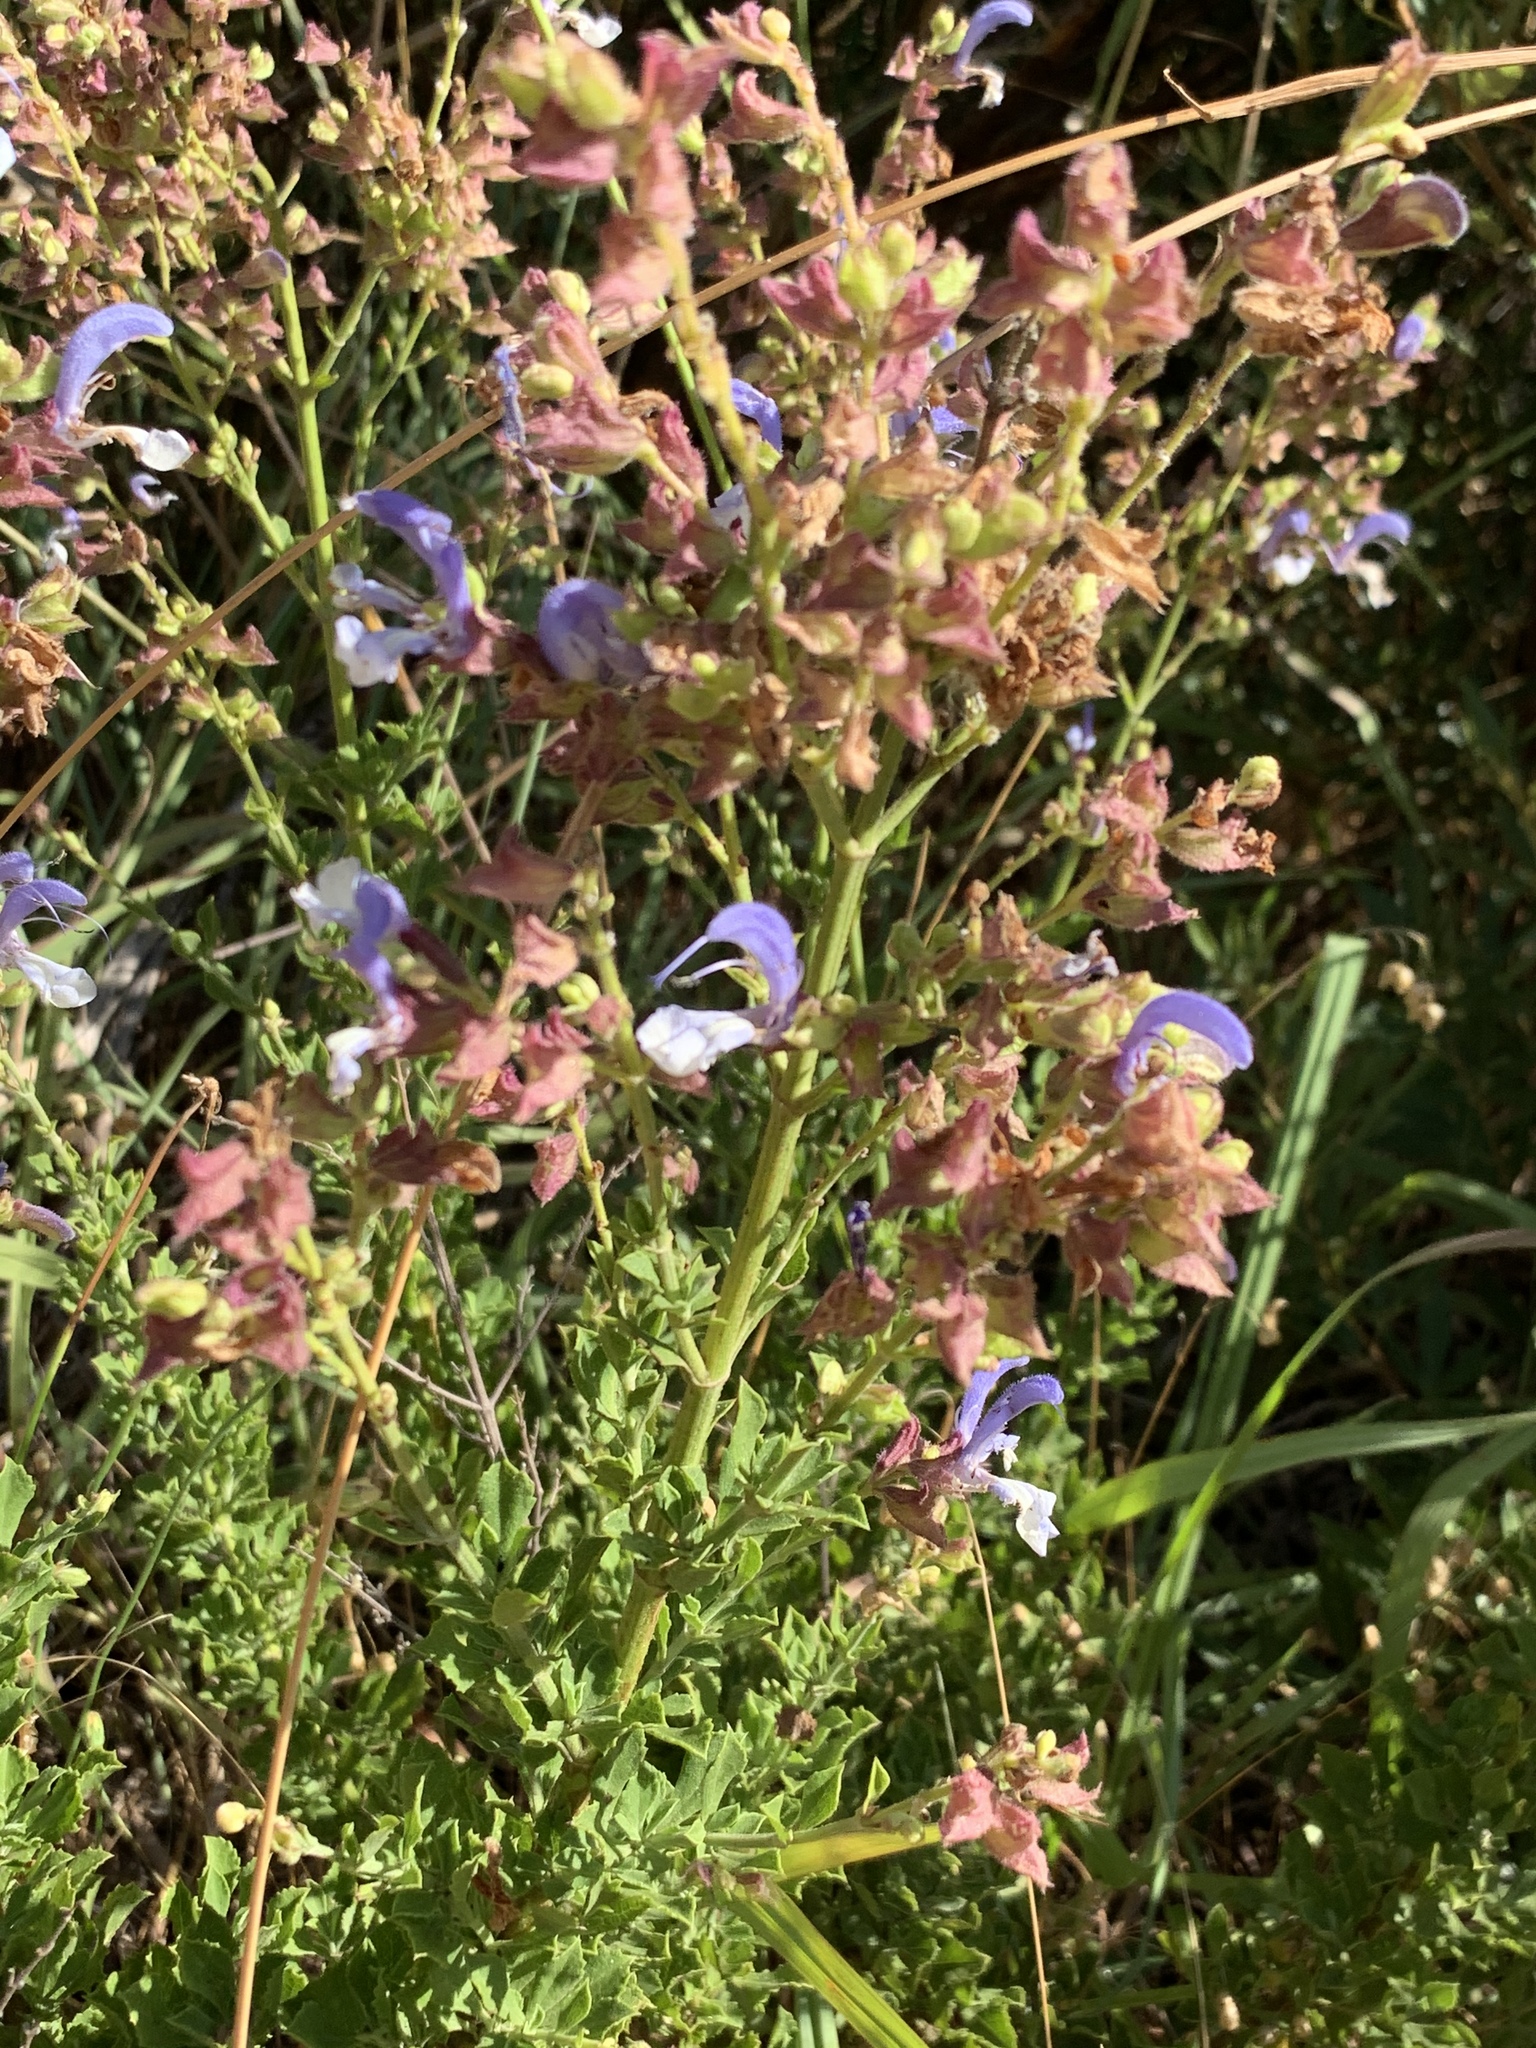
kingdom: Plantae
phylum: Tracheophyta
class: Magnoliopsida
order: Lamiales
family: Lamiaceae
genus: Salvia
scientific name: Salvia chamelaeagnea
